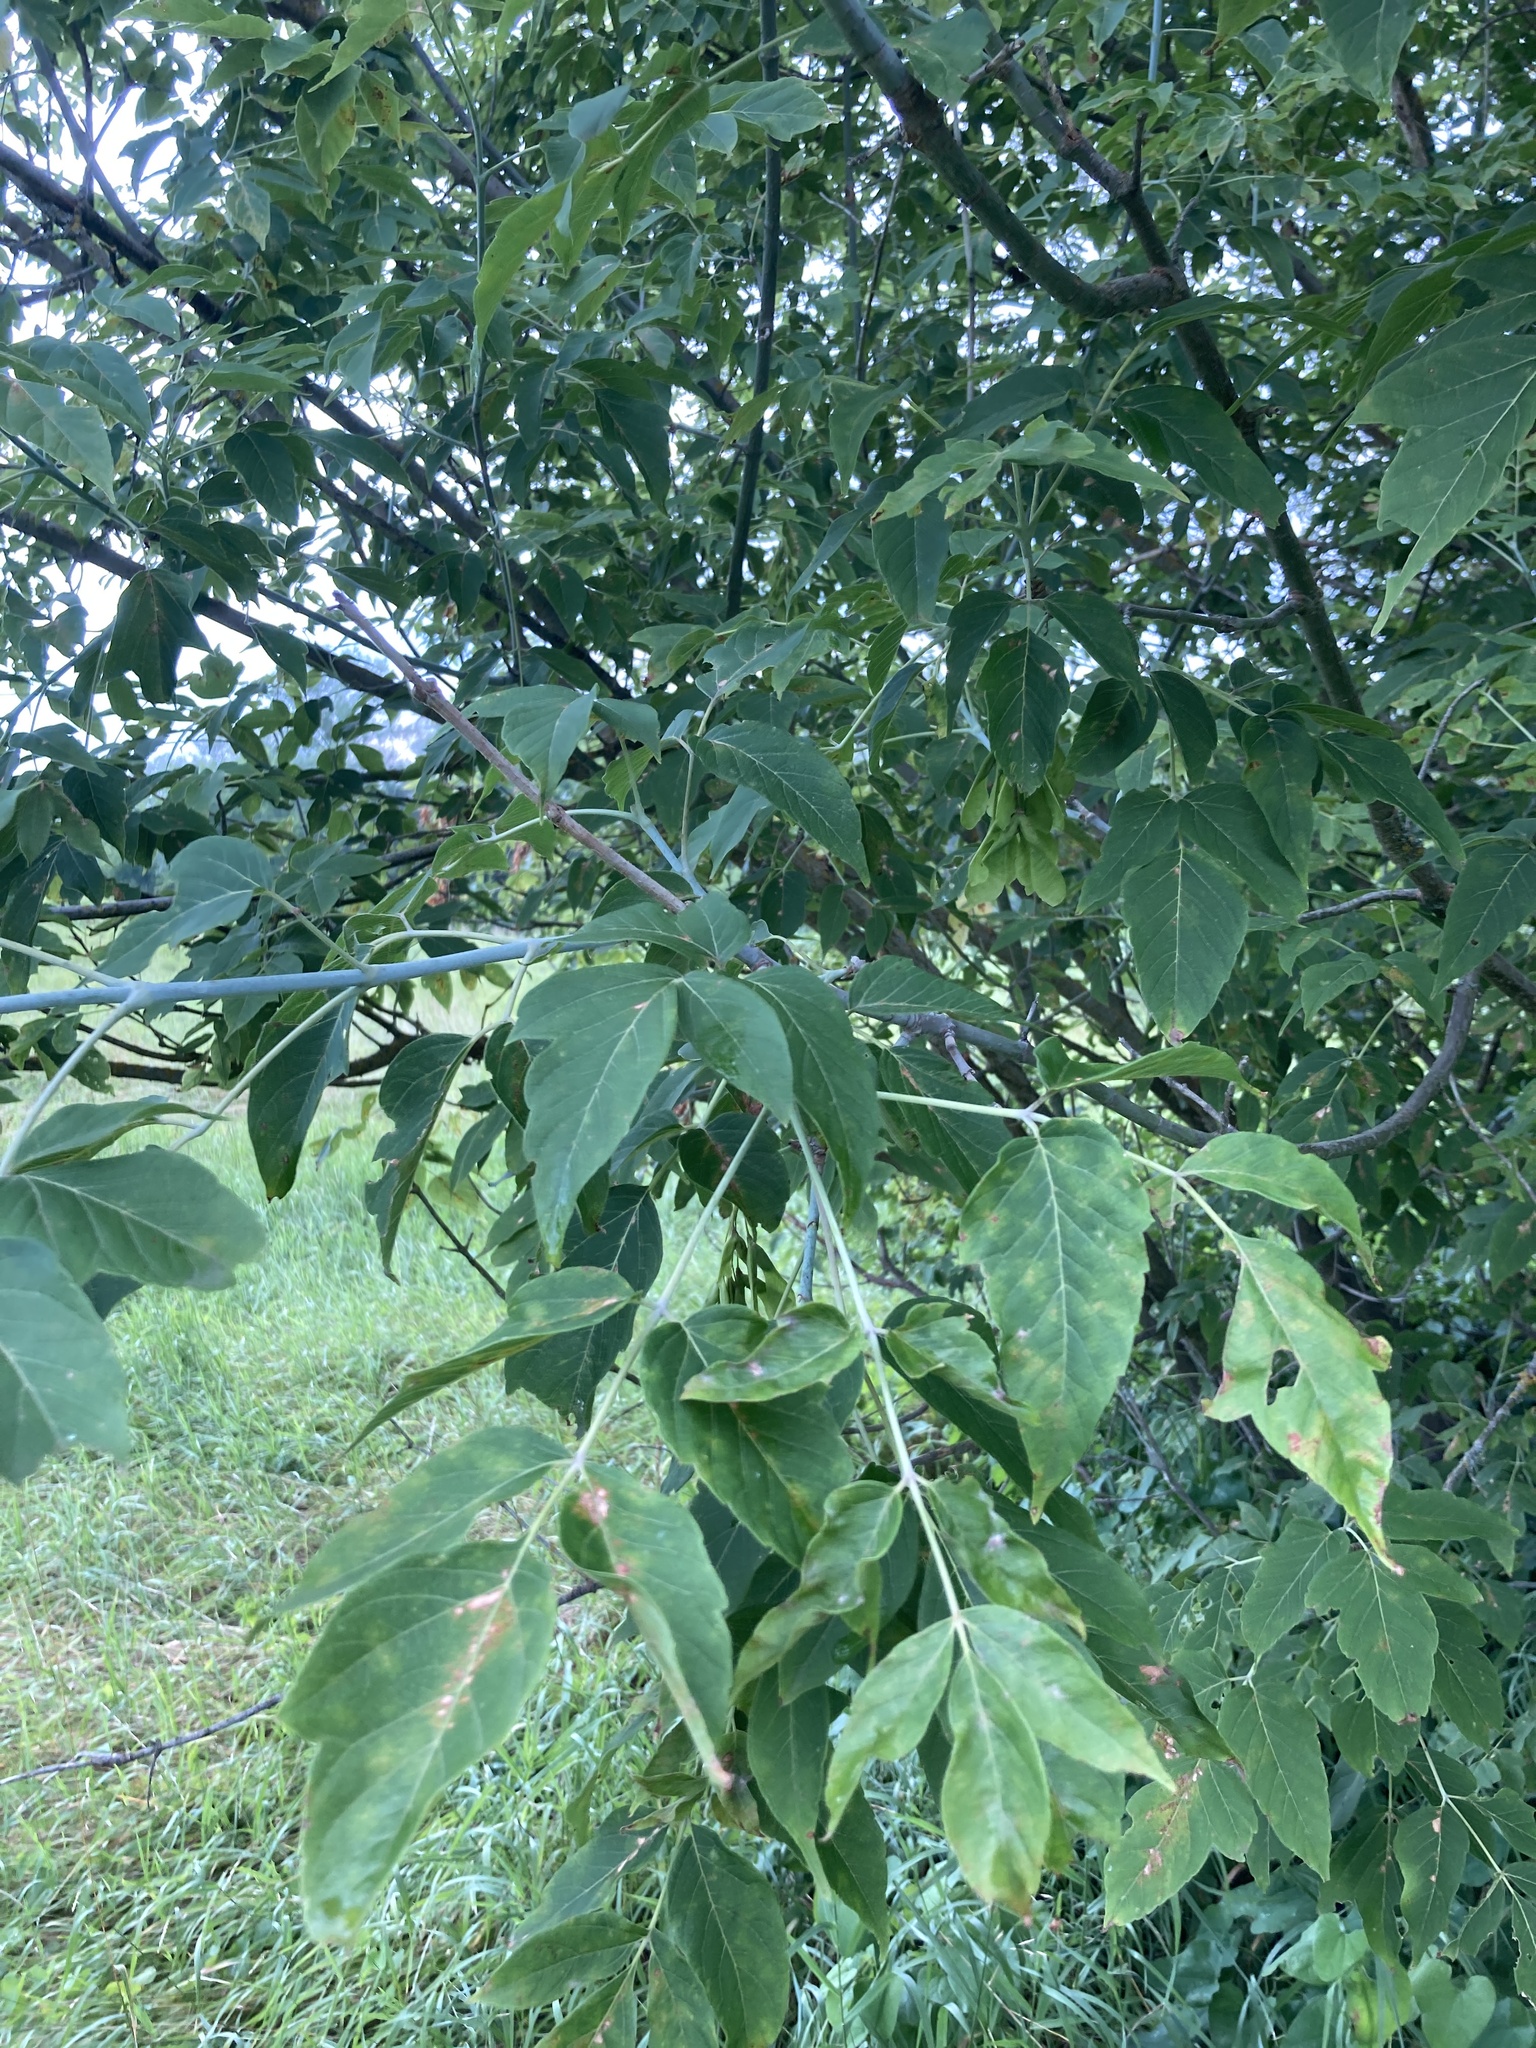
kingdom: Plantae
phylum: Tracheophyta
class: Magnoliopsida
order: Sapindales
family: Sapindaceae
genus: Acer
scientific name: Acer negundo
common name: Ashleaf maple
